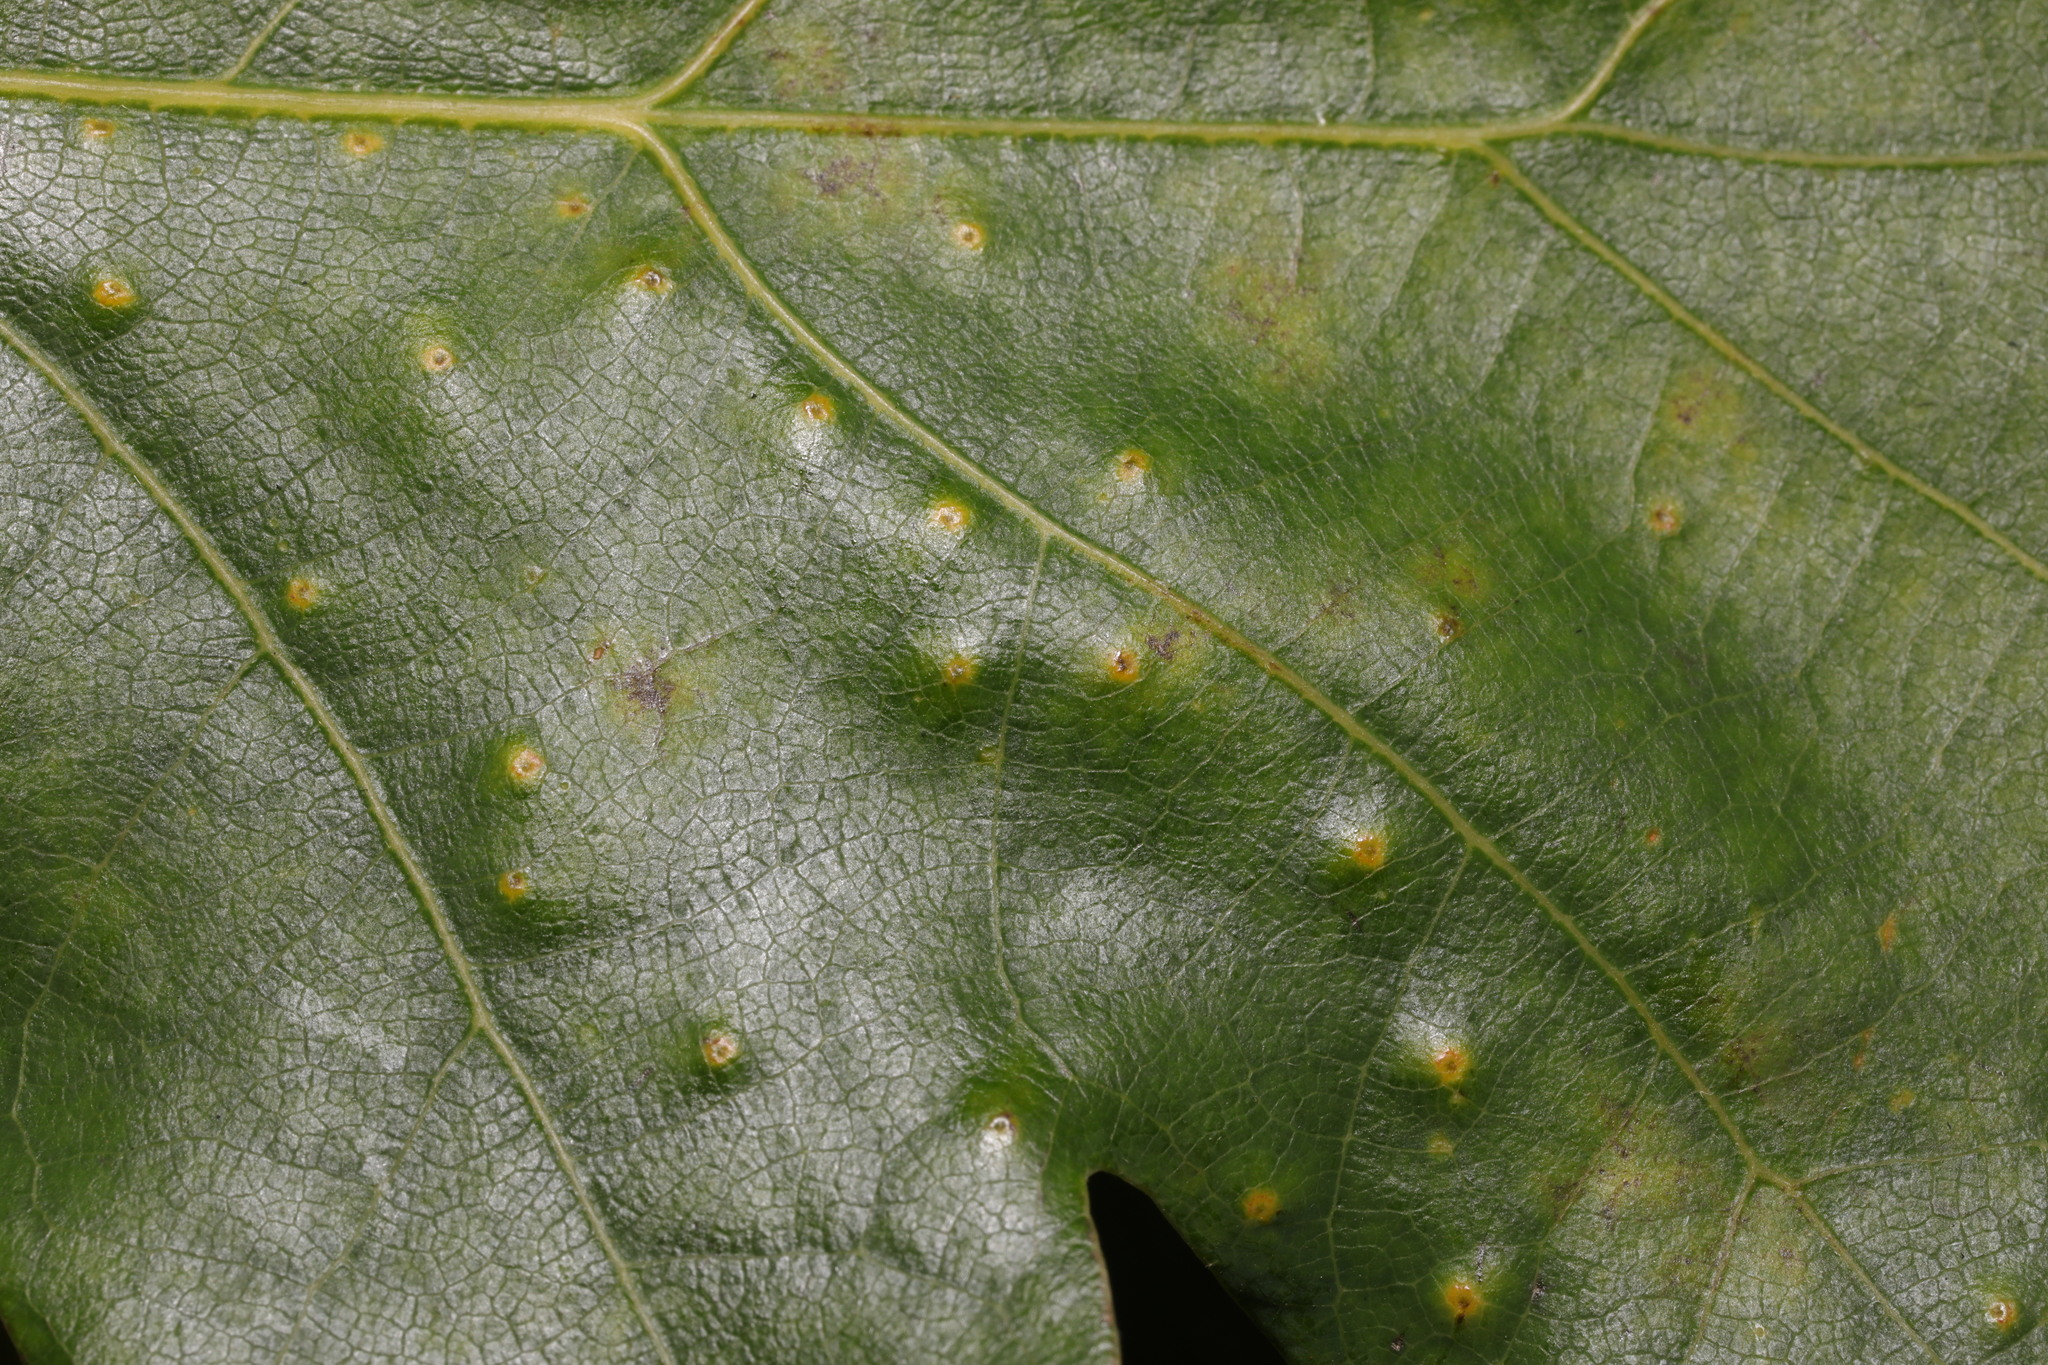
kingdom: Animalia
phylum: Arthropoda
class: Insecta
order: Hymenoptera
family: Cynipidae
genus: Neuroterus
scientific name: Neuroterus numismalis
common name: Silk-button spangle gall
